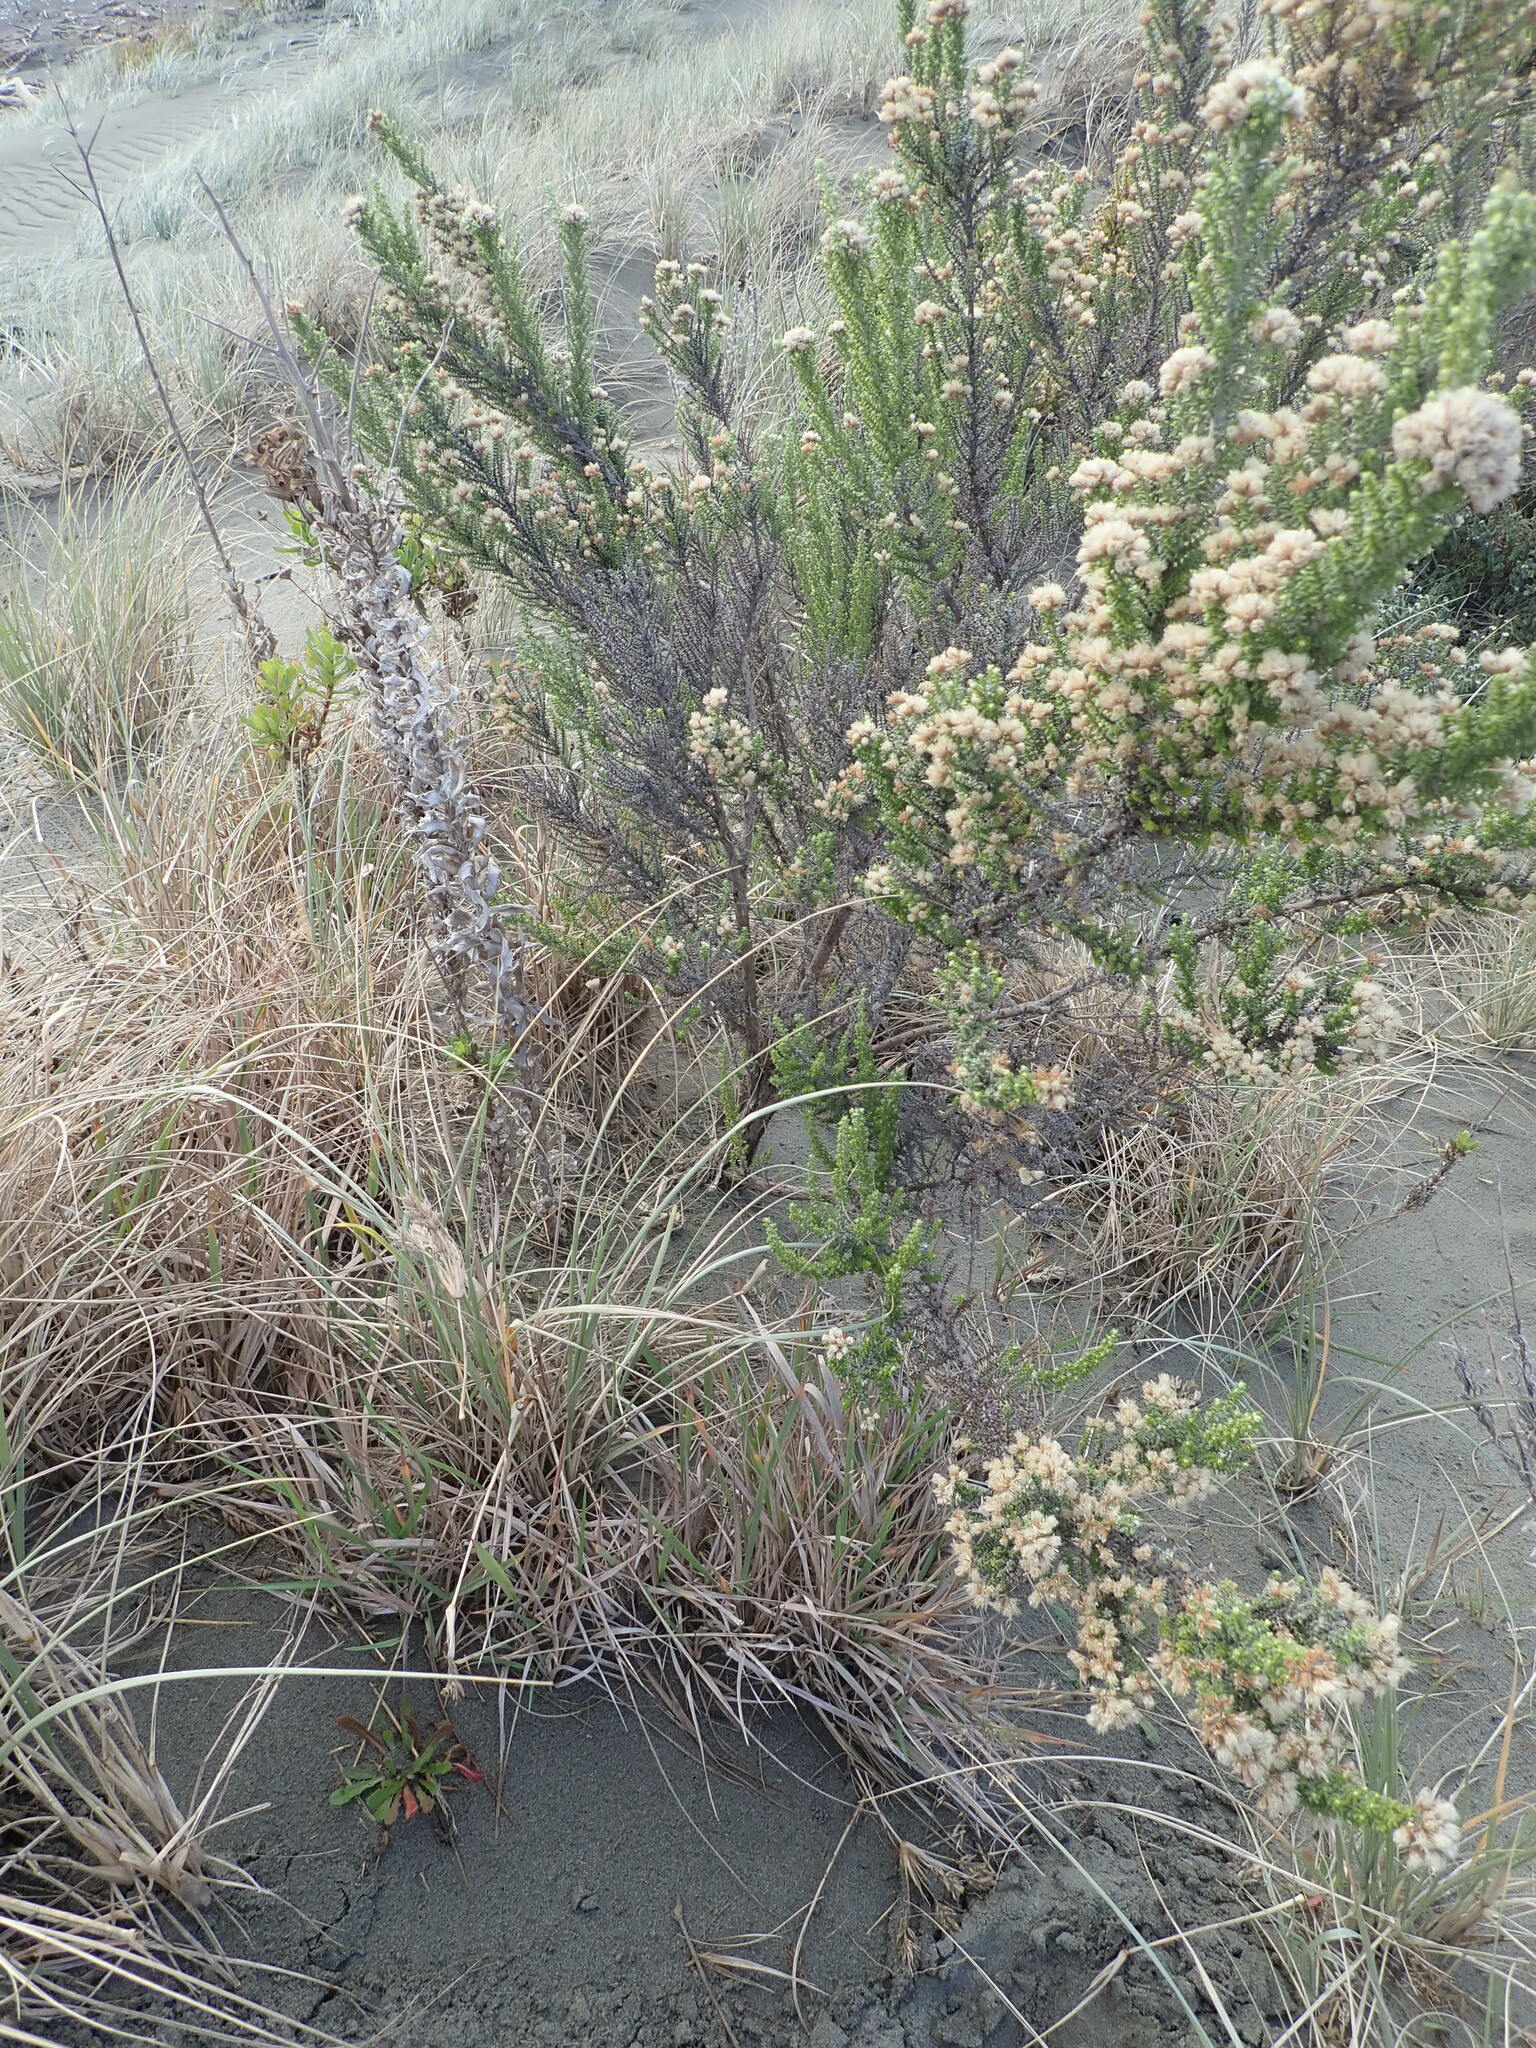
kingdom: Plantae
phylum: Tracheophyta
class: Magnoliopsida
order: Asterales
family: Asteraceae
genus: Ozothamnus
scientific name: Ozothamnus leptophyllus
